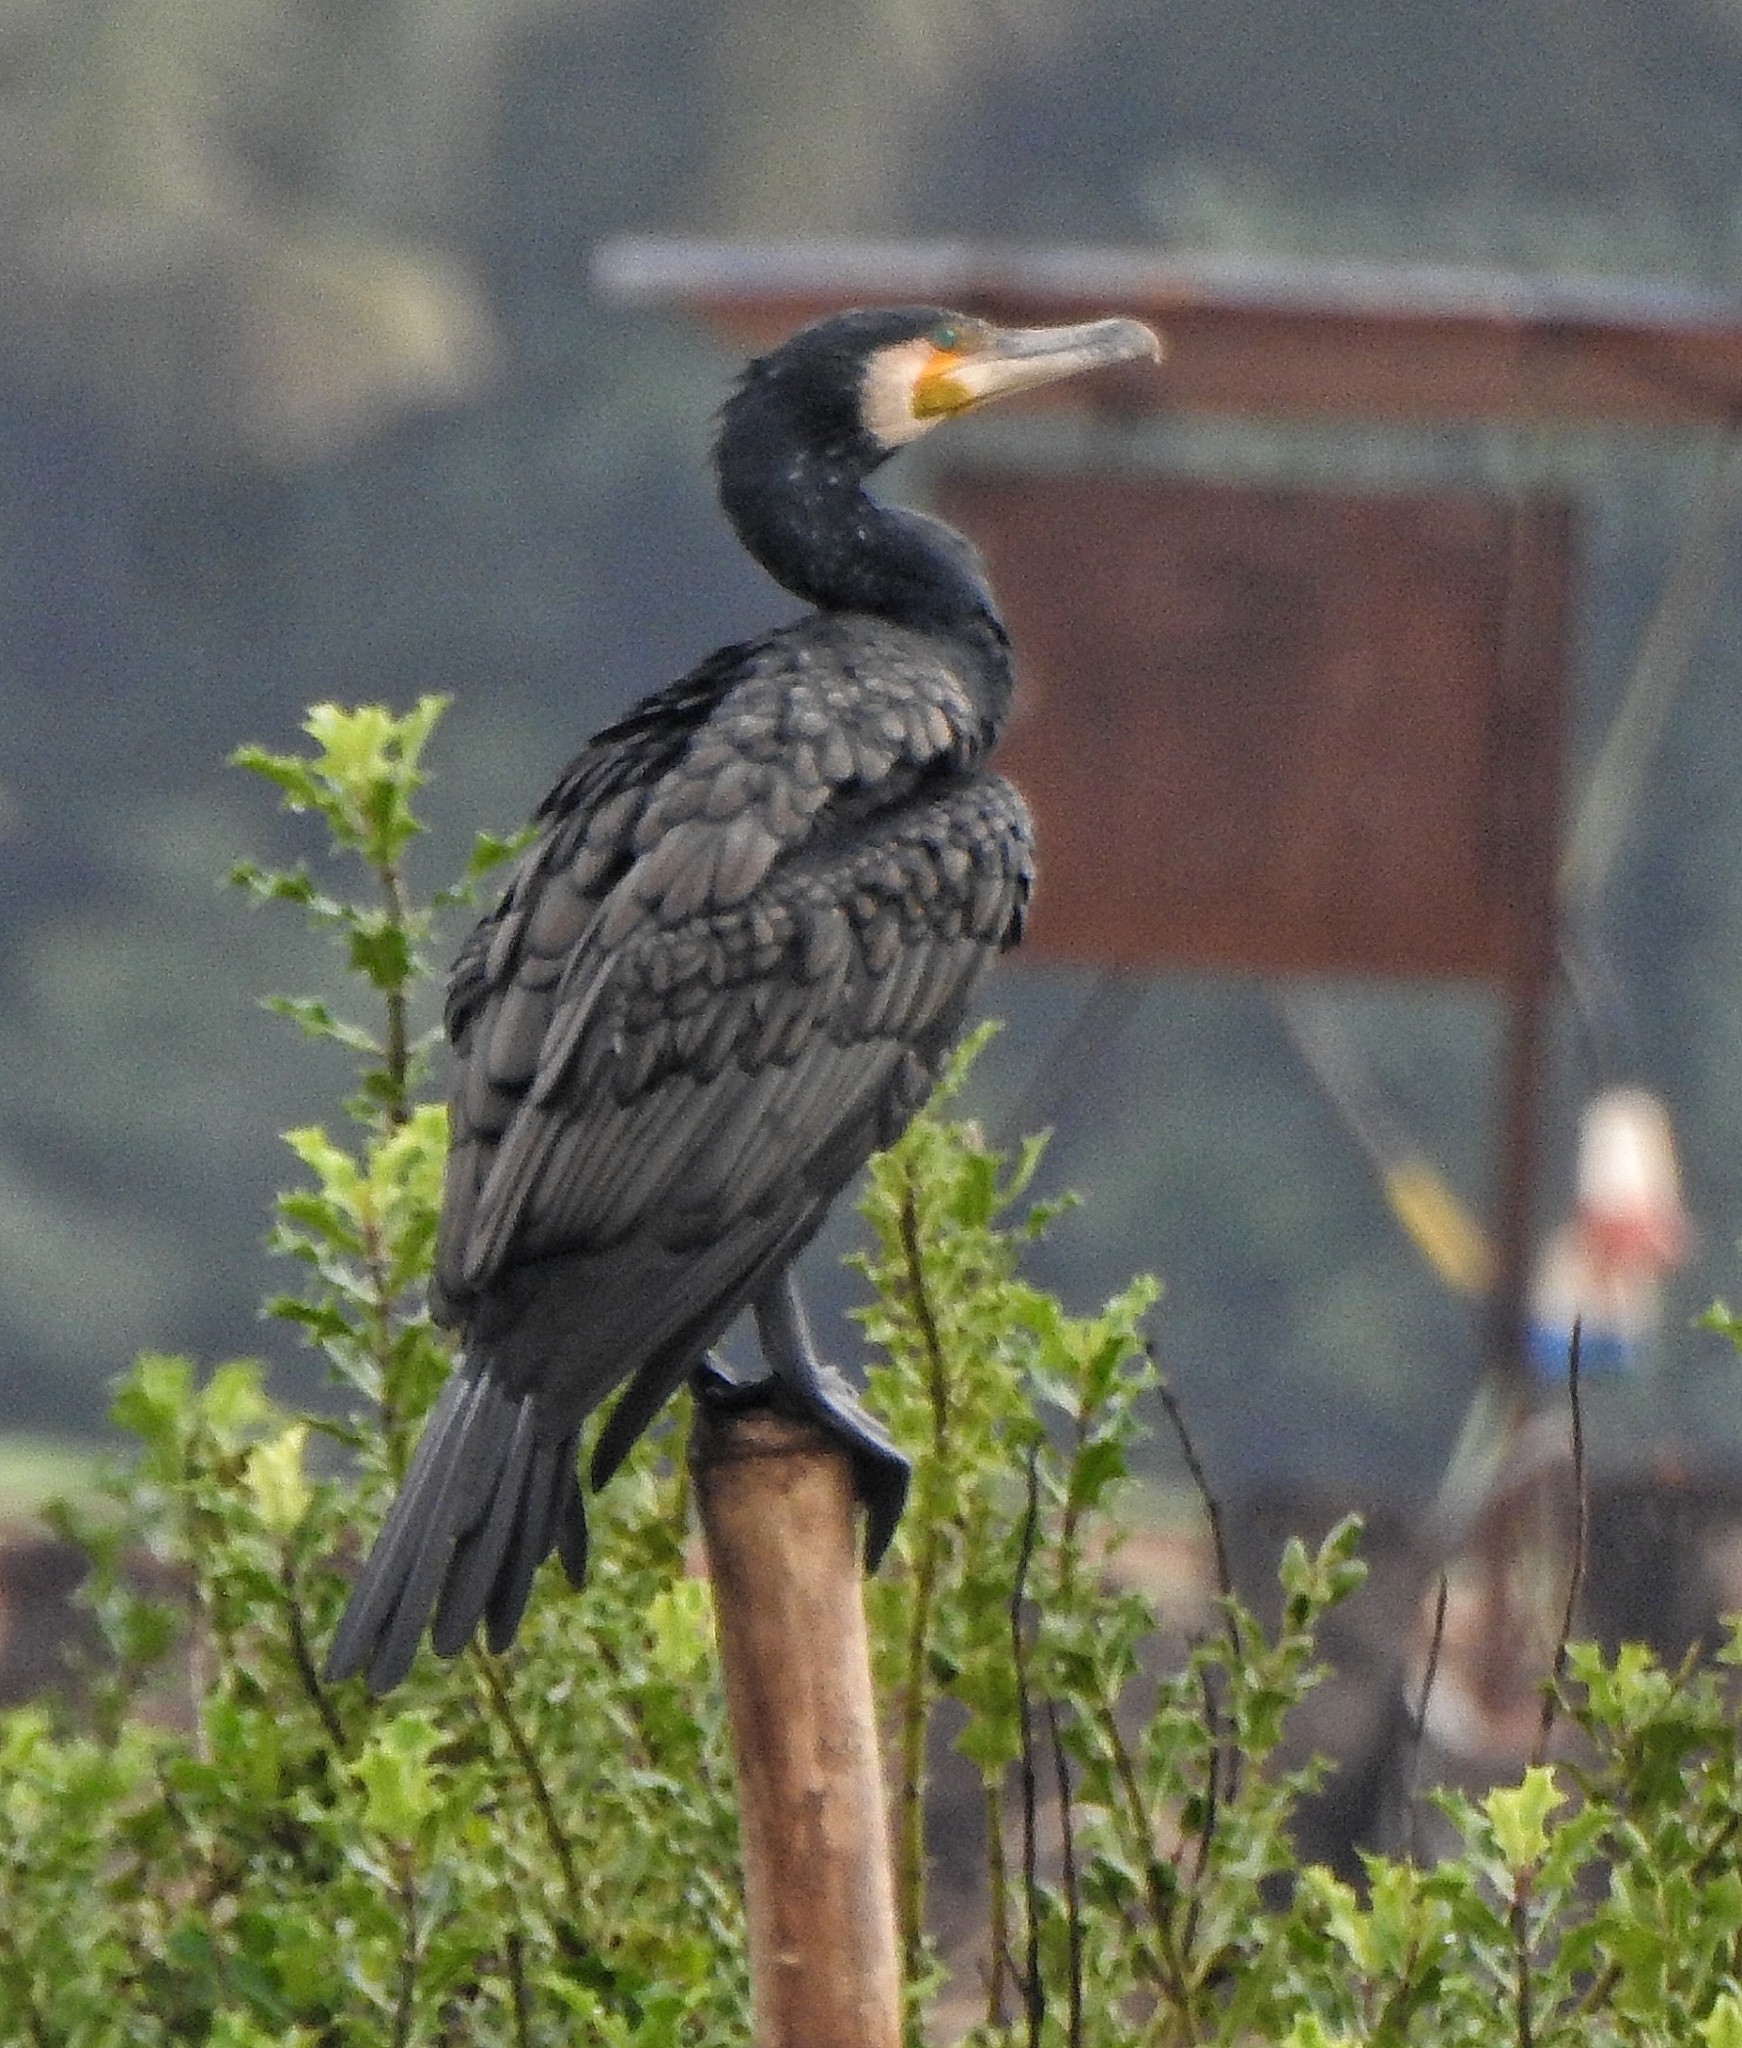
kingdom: Animalia
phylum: Chordata
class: Aves
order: Suliformes
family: Phalacrocoracidae
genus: Phalacrocorax
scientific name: Phalacrocorax carbo
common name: Great cormorant
